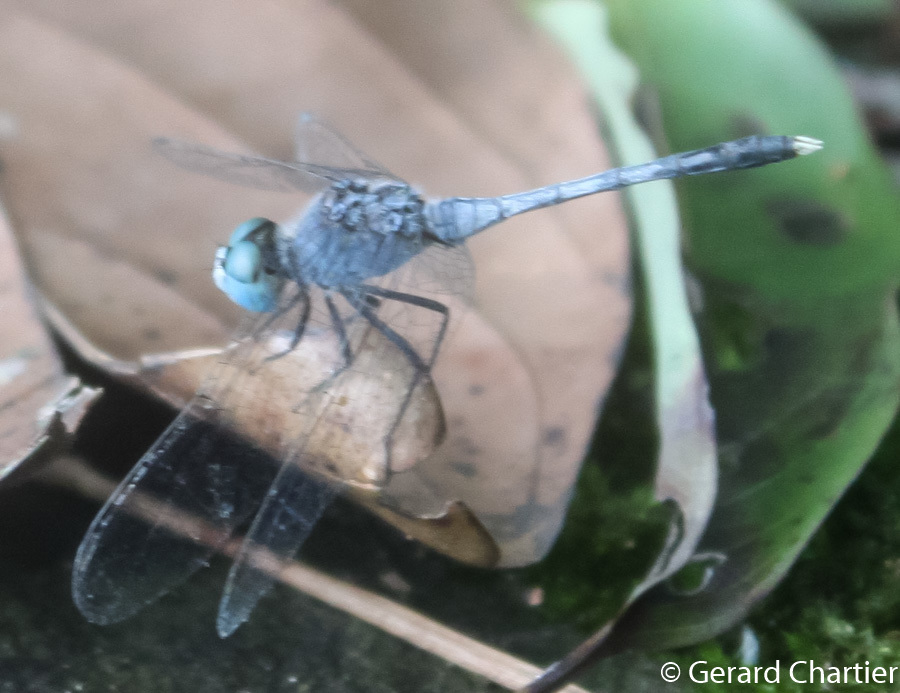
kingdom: Animalia
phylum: Arthropoda
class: Insecta
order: Odonata
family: Libellulidae
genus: Diplacodes
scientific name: Diplacodes trivialis
